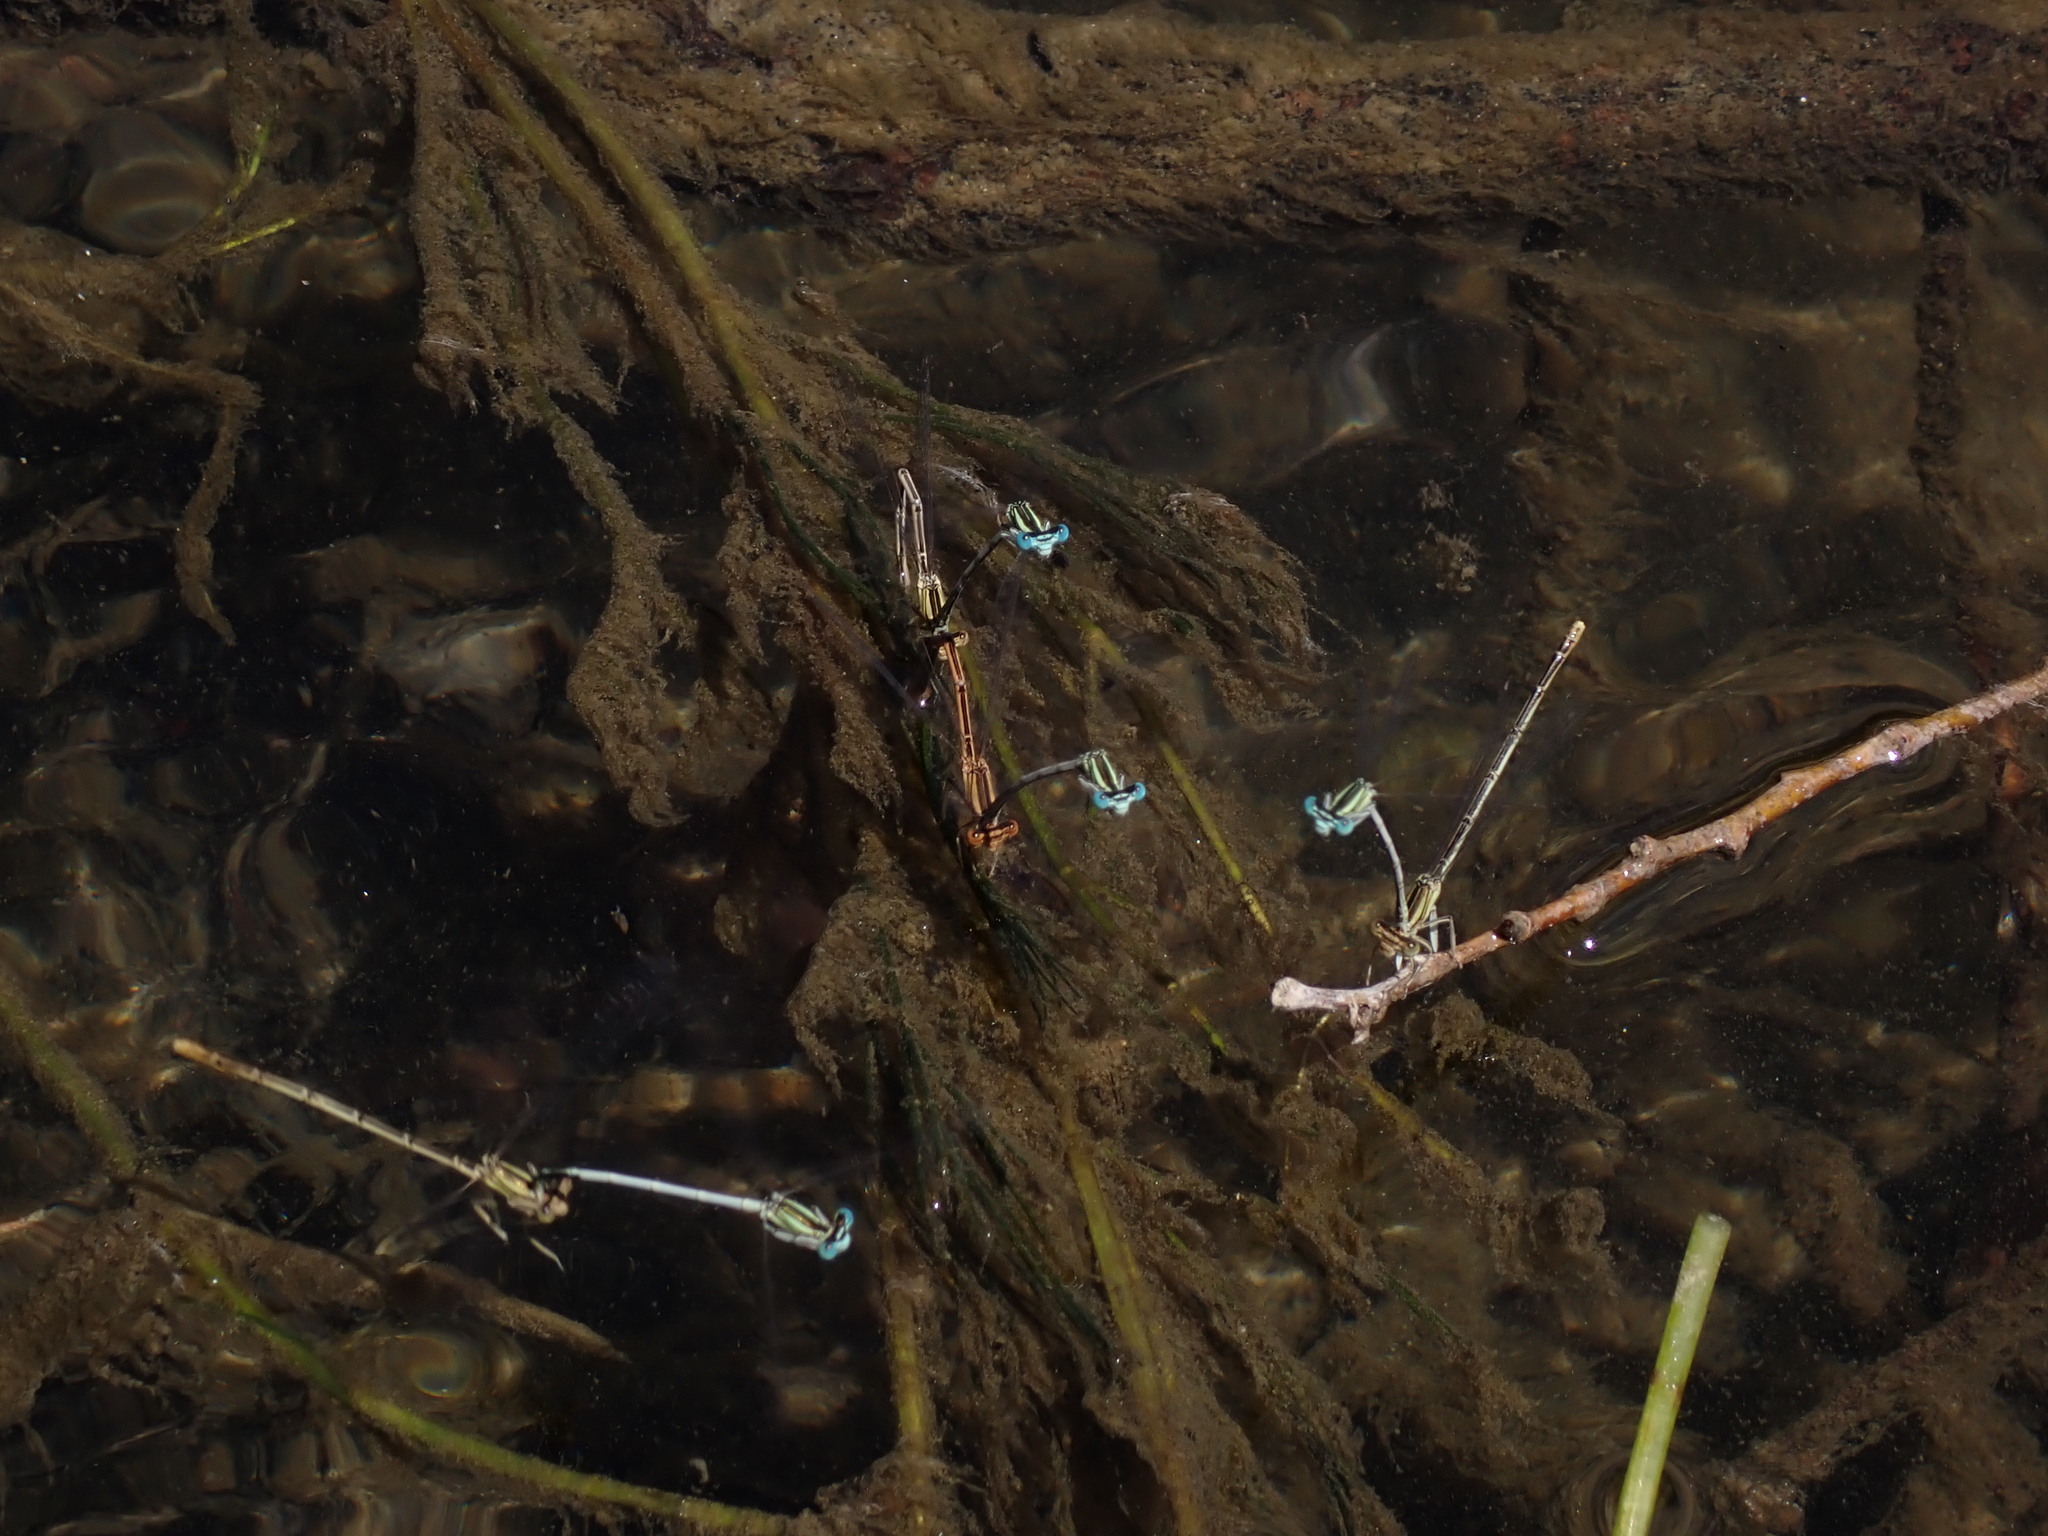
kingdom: Animalia
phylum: Arthropoda
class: Insecta
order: Odonata
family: Platycnemididae
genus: Platycnemis
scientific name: Platycnemis latipes
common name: White featherleg
